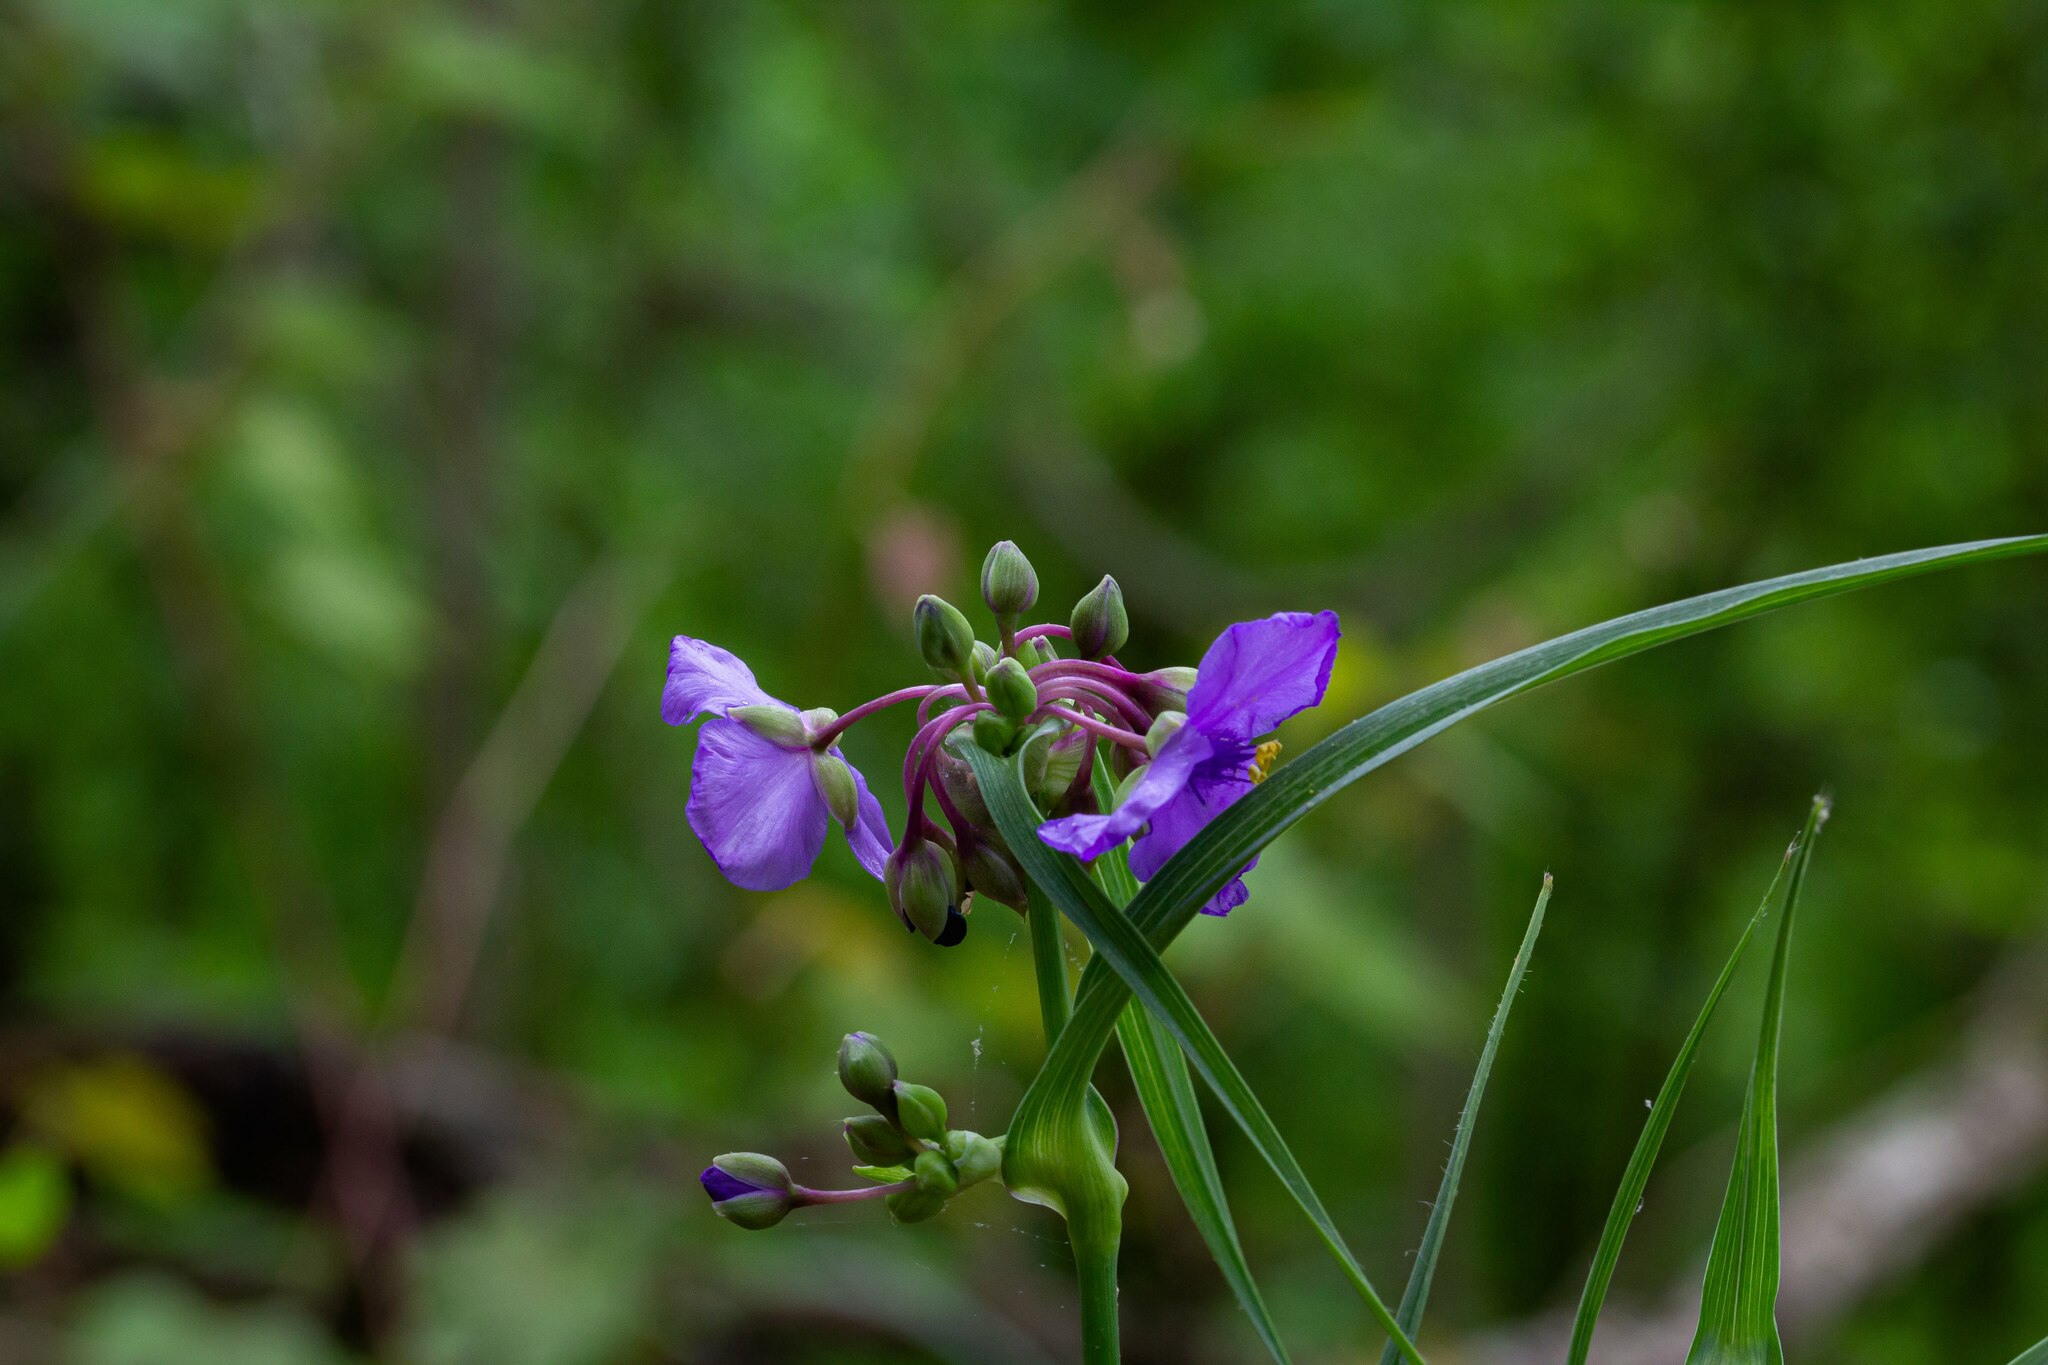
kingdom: Plantae
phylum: Tracheophyta
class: Liliopsida
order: Commelinales
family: Commelinaceae
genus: Tradescantia
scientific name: Tradescantia ohiensis
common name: Ohio spiderwort
